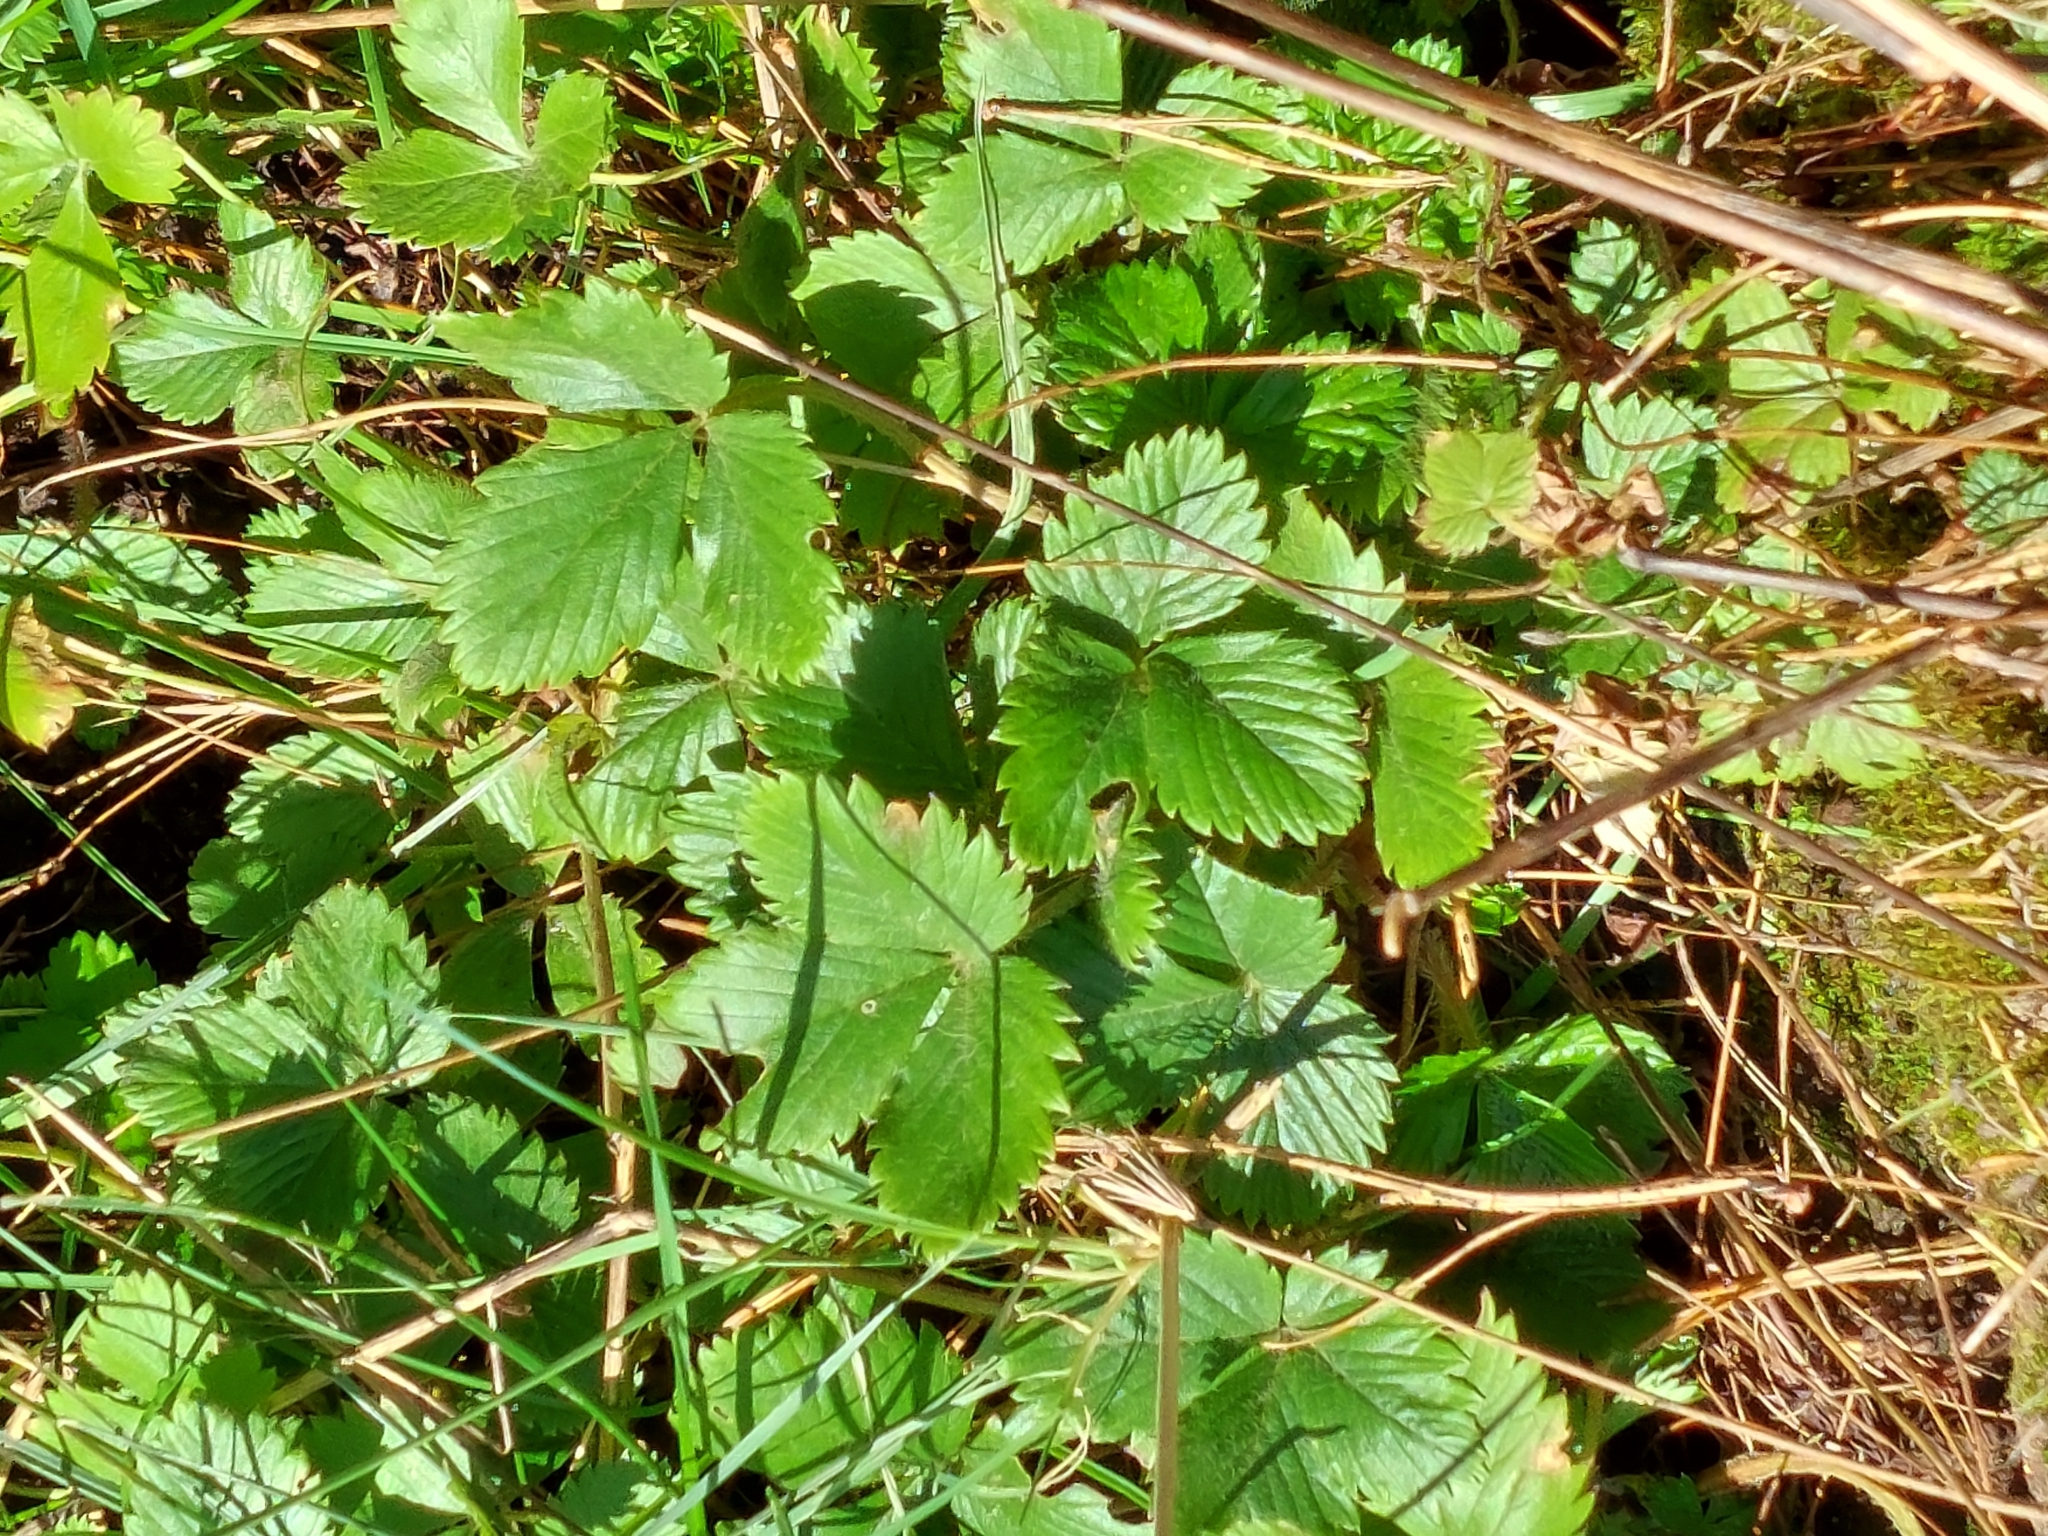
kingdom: Plantae
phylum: Tracheophyta
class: Magnoliopsida
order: Rosales
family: Rosaceae
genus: Fragaria
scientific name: Fragaria vesca
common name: Wild strawberry
